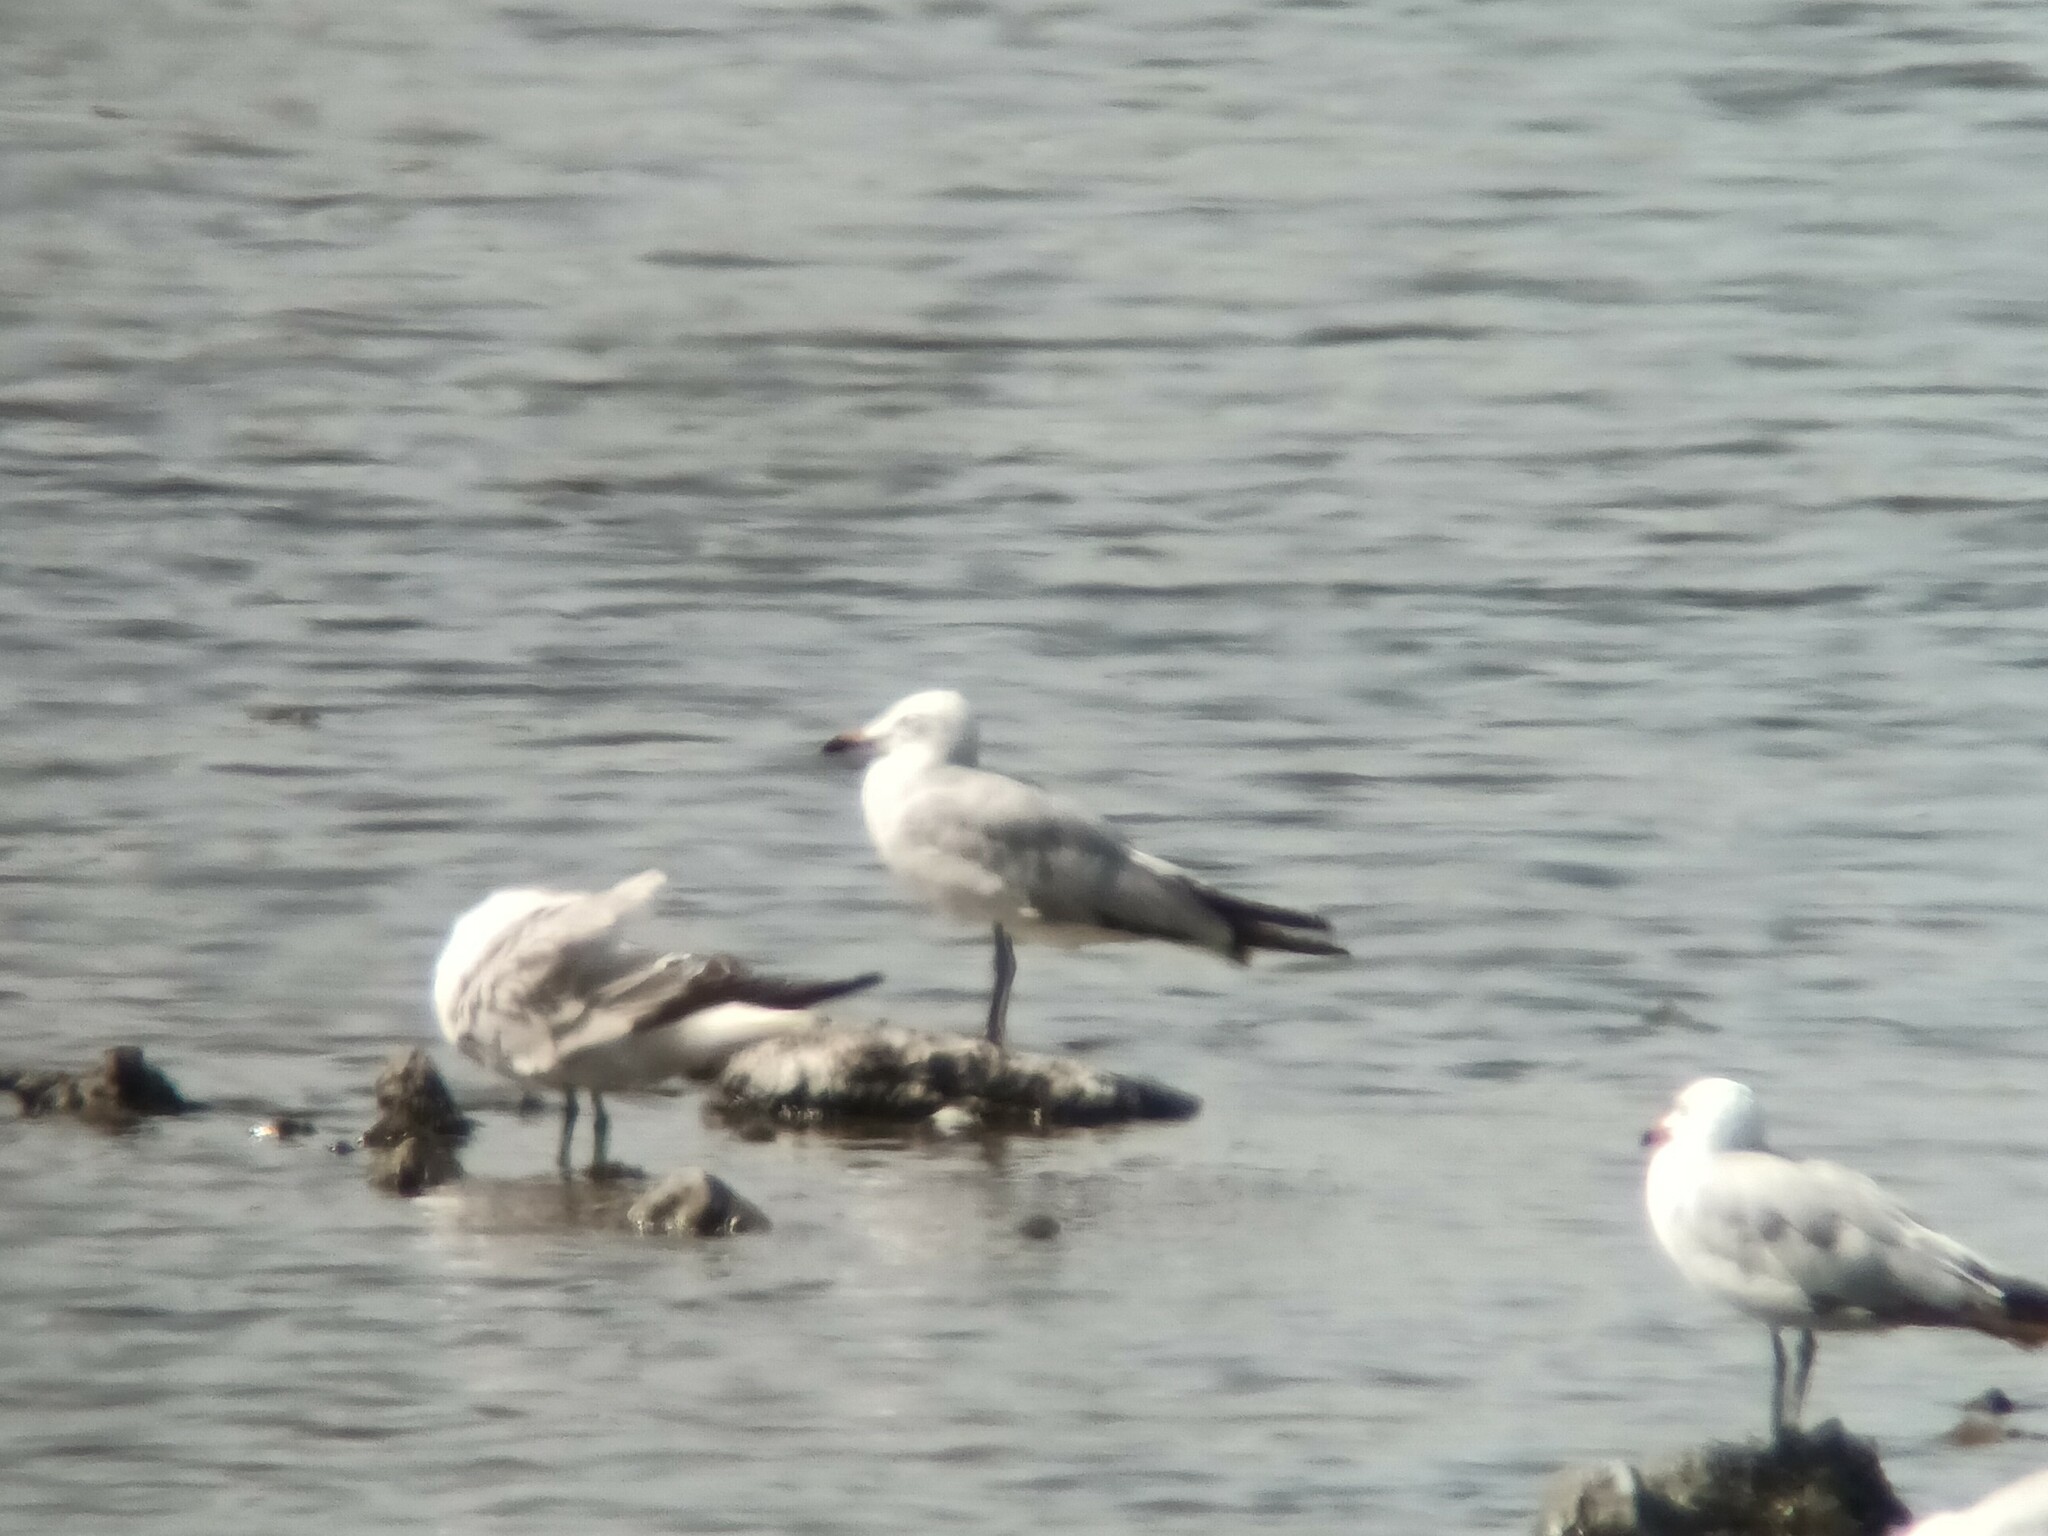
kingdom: Animalia
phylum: Chordata
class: Aves
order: Charadriiformes
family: Laridae
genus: Ichthyaetus
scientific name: Ichthyaetus audouinii
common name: Audouin's gull
